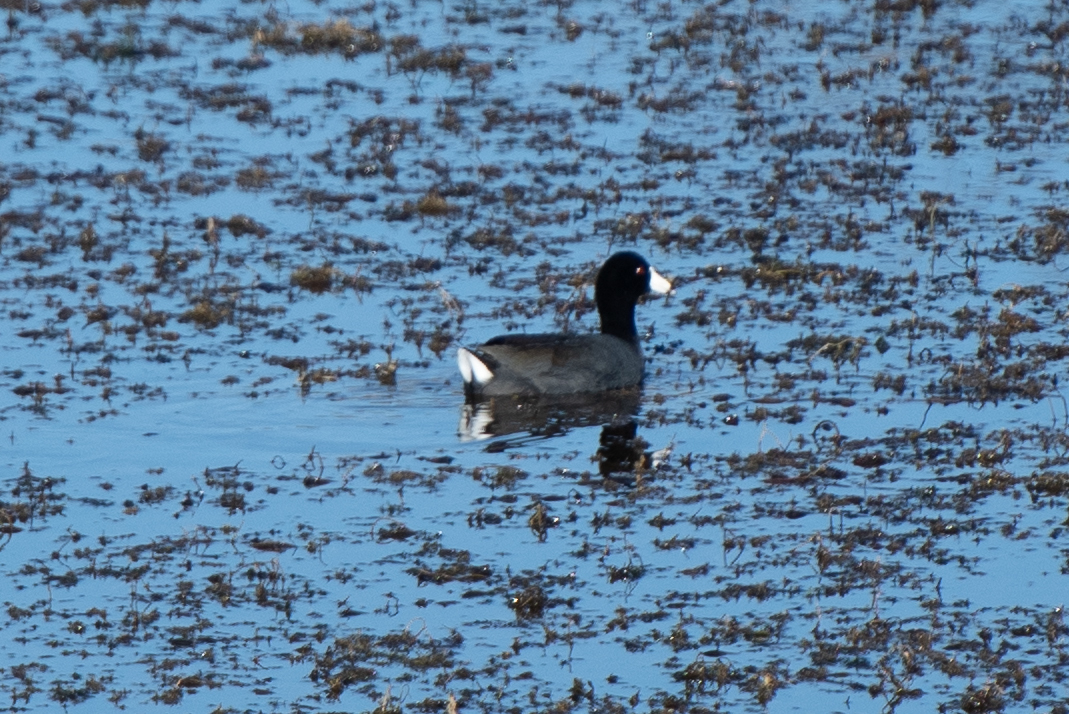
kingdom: Animalia
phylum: Chordata
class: Aves
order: Gruiformes
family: Rallidae
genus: Fulica
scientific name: Fulica americana
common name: American coot
